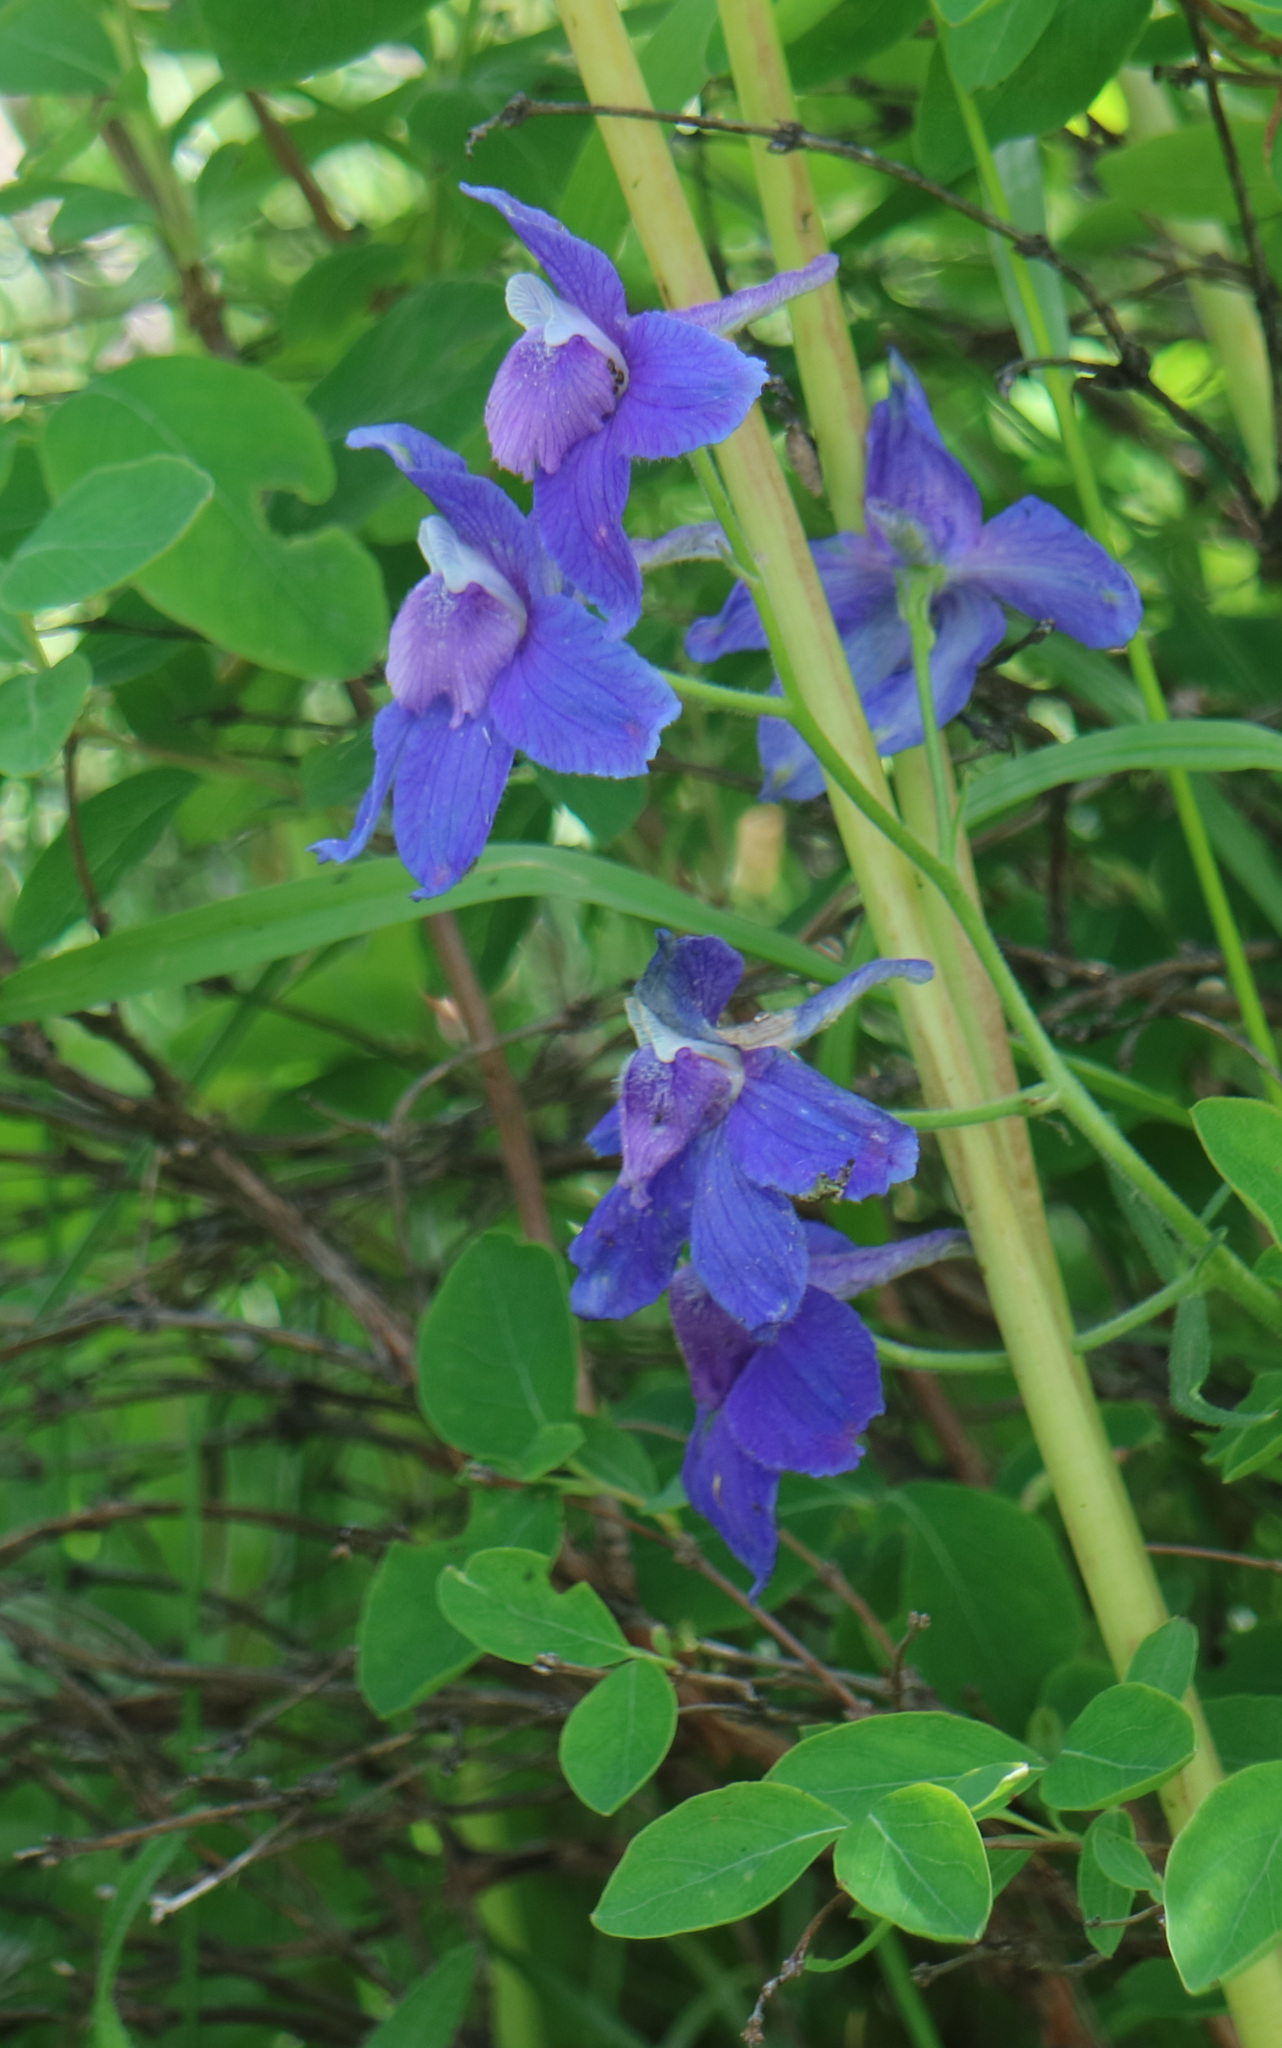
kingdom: Plantae
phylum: Tracheophyta
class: Magnoliopsida
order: Ranunculales
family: Ranunculaceae
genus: Delphinium
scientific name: Delphinium bicolor
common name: Low larkspur
